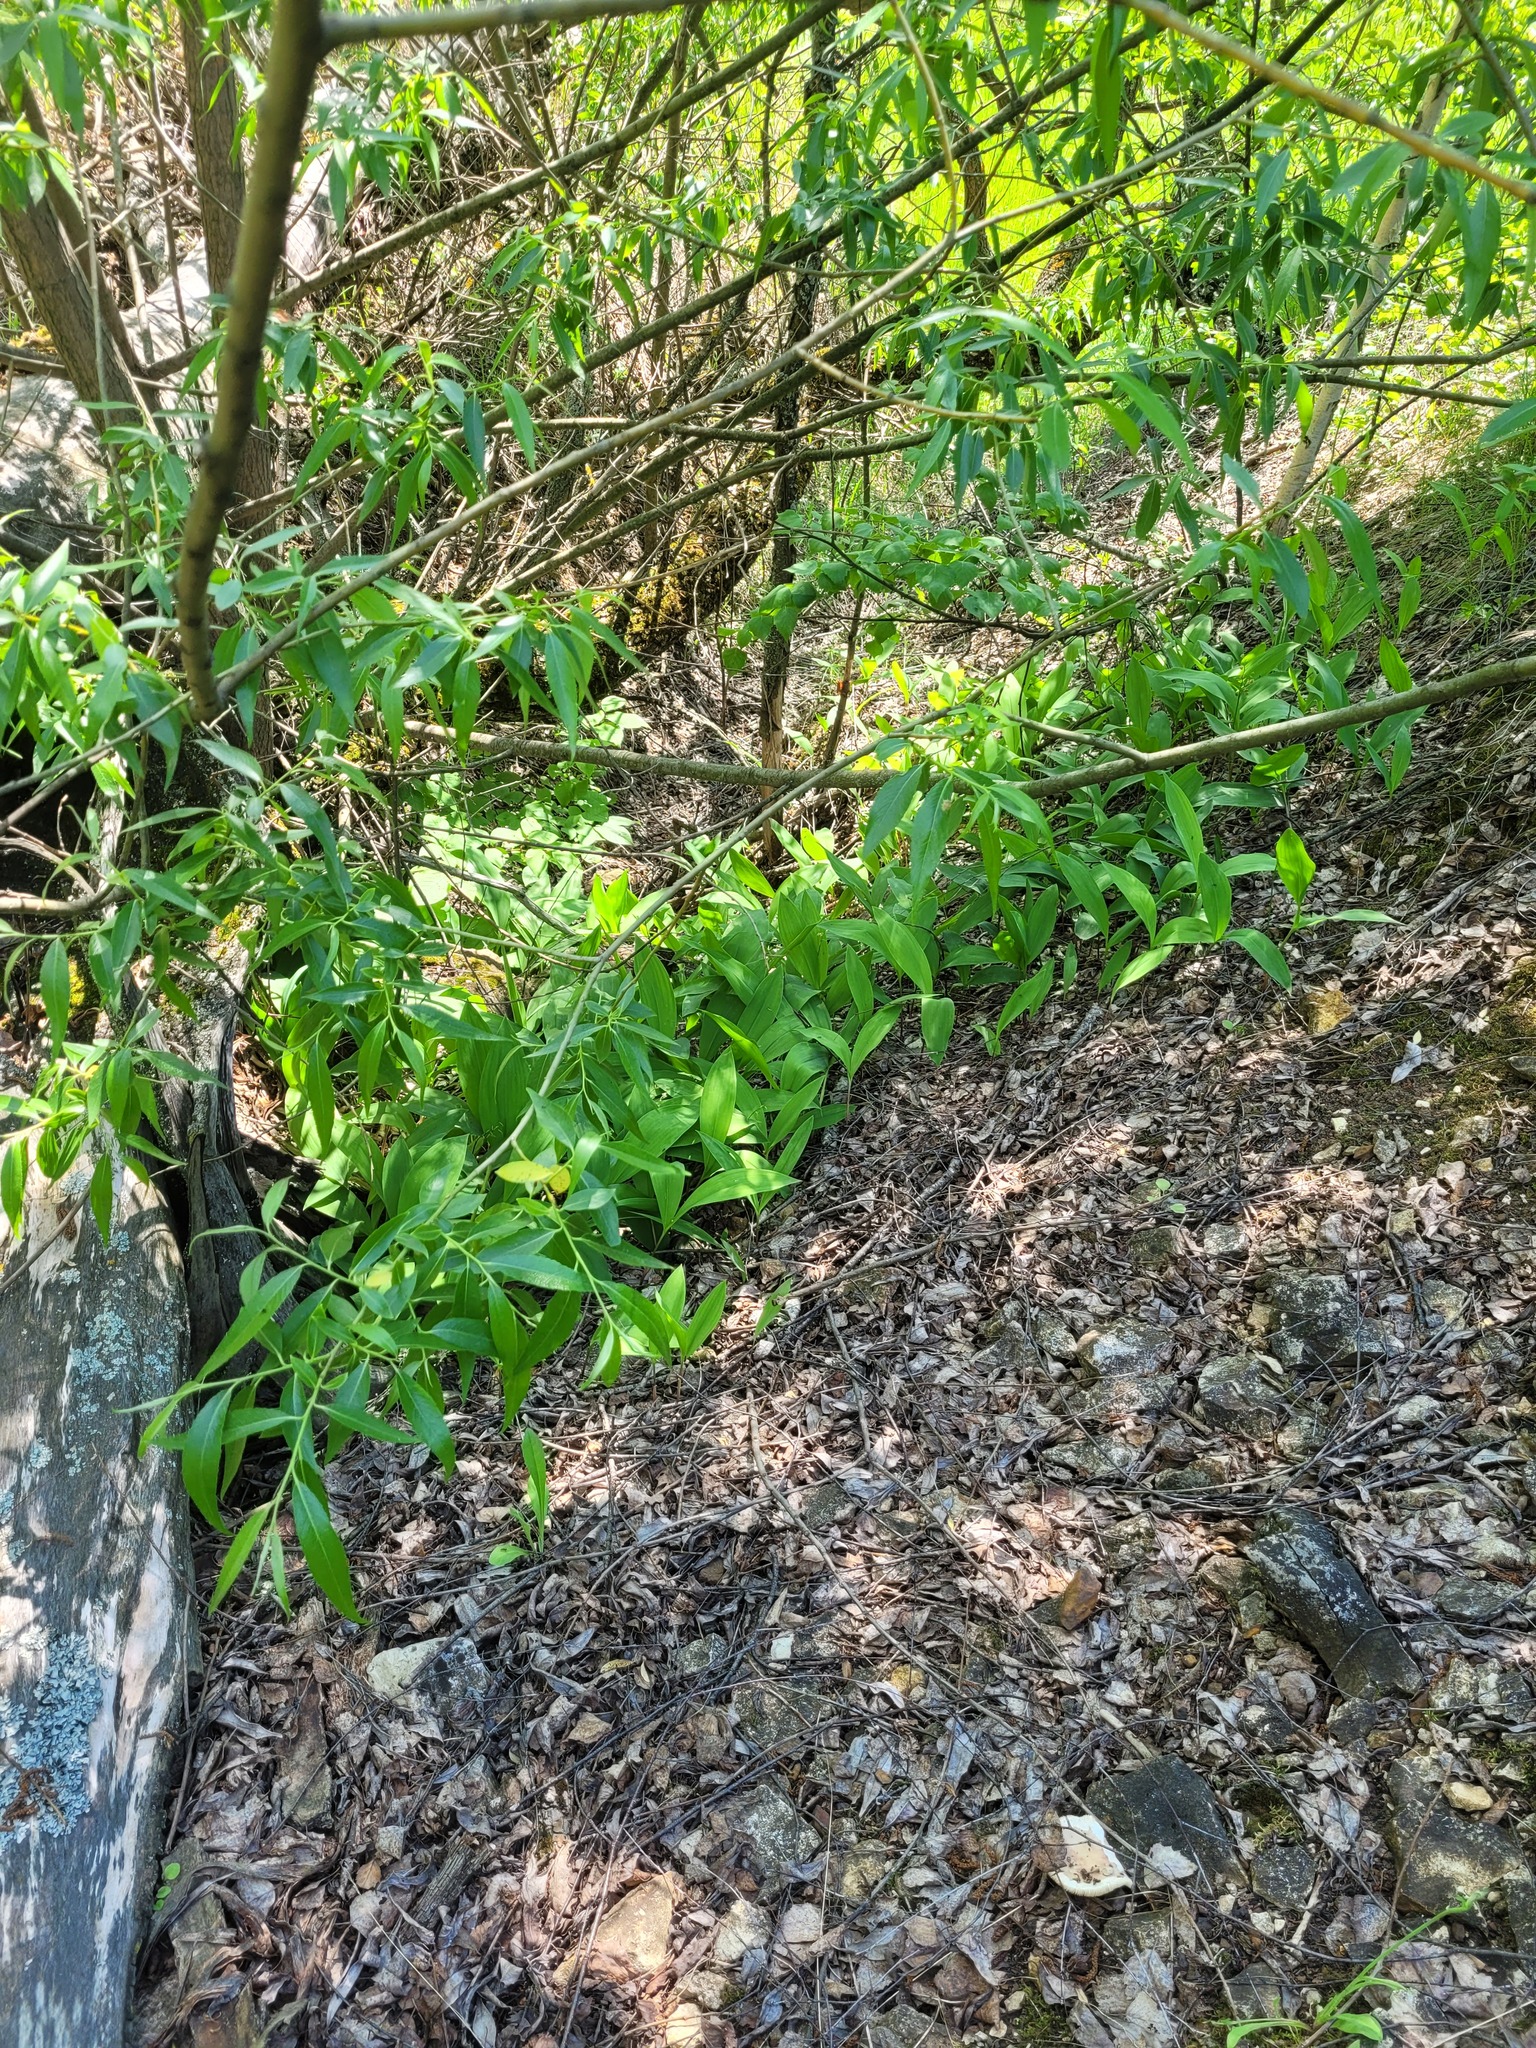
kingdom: Plantae
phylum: Tracheophyta
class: Liliopsida
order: Asparagales
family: Asparagaceae
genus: Convallaria
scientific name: Convallaria majalis
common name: Lily-of-the-valley
